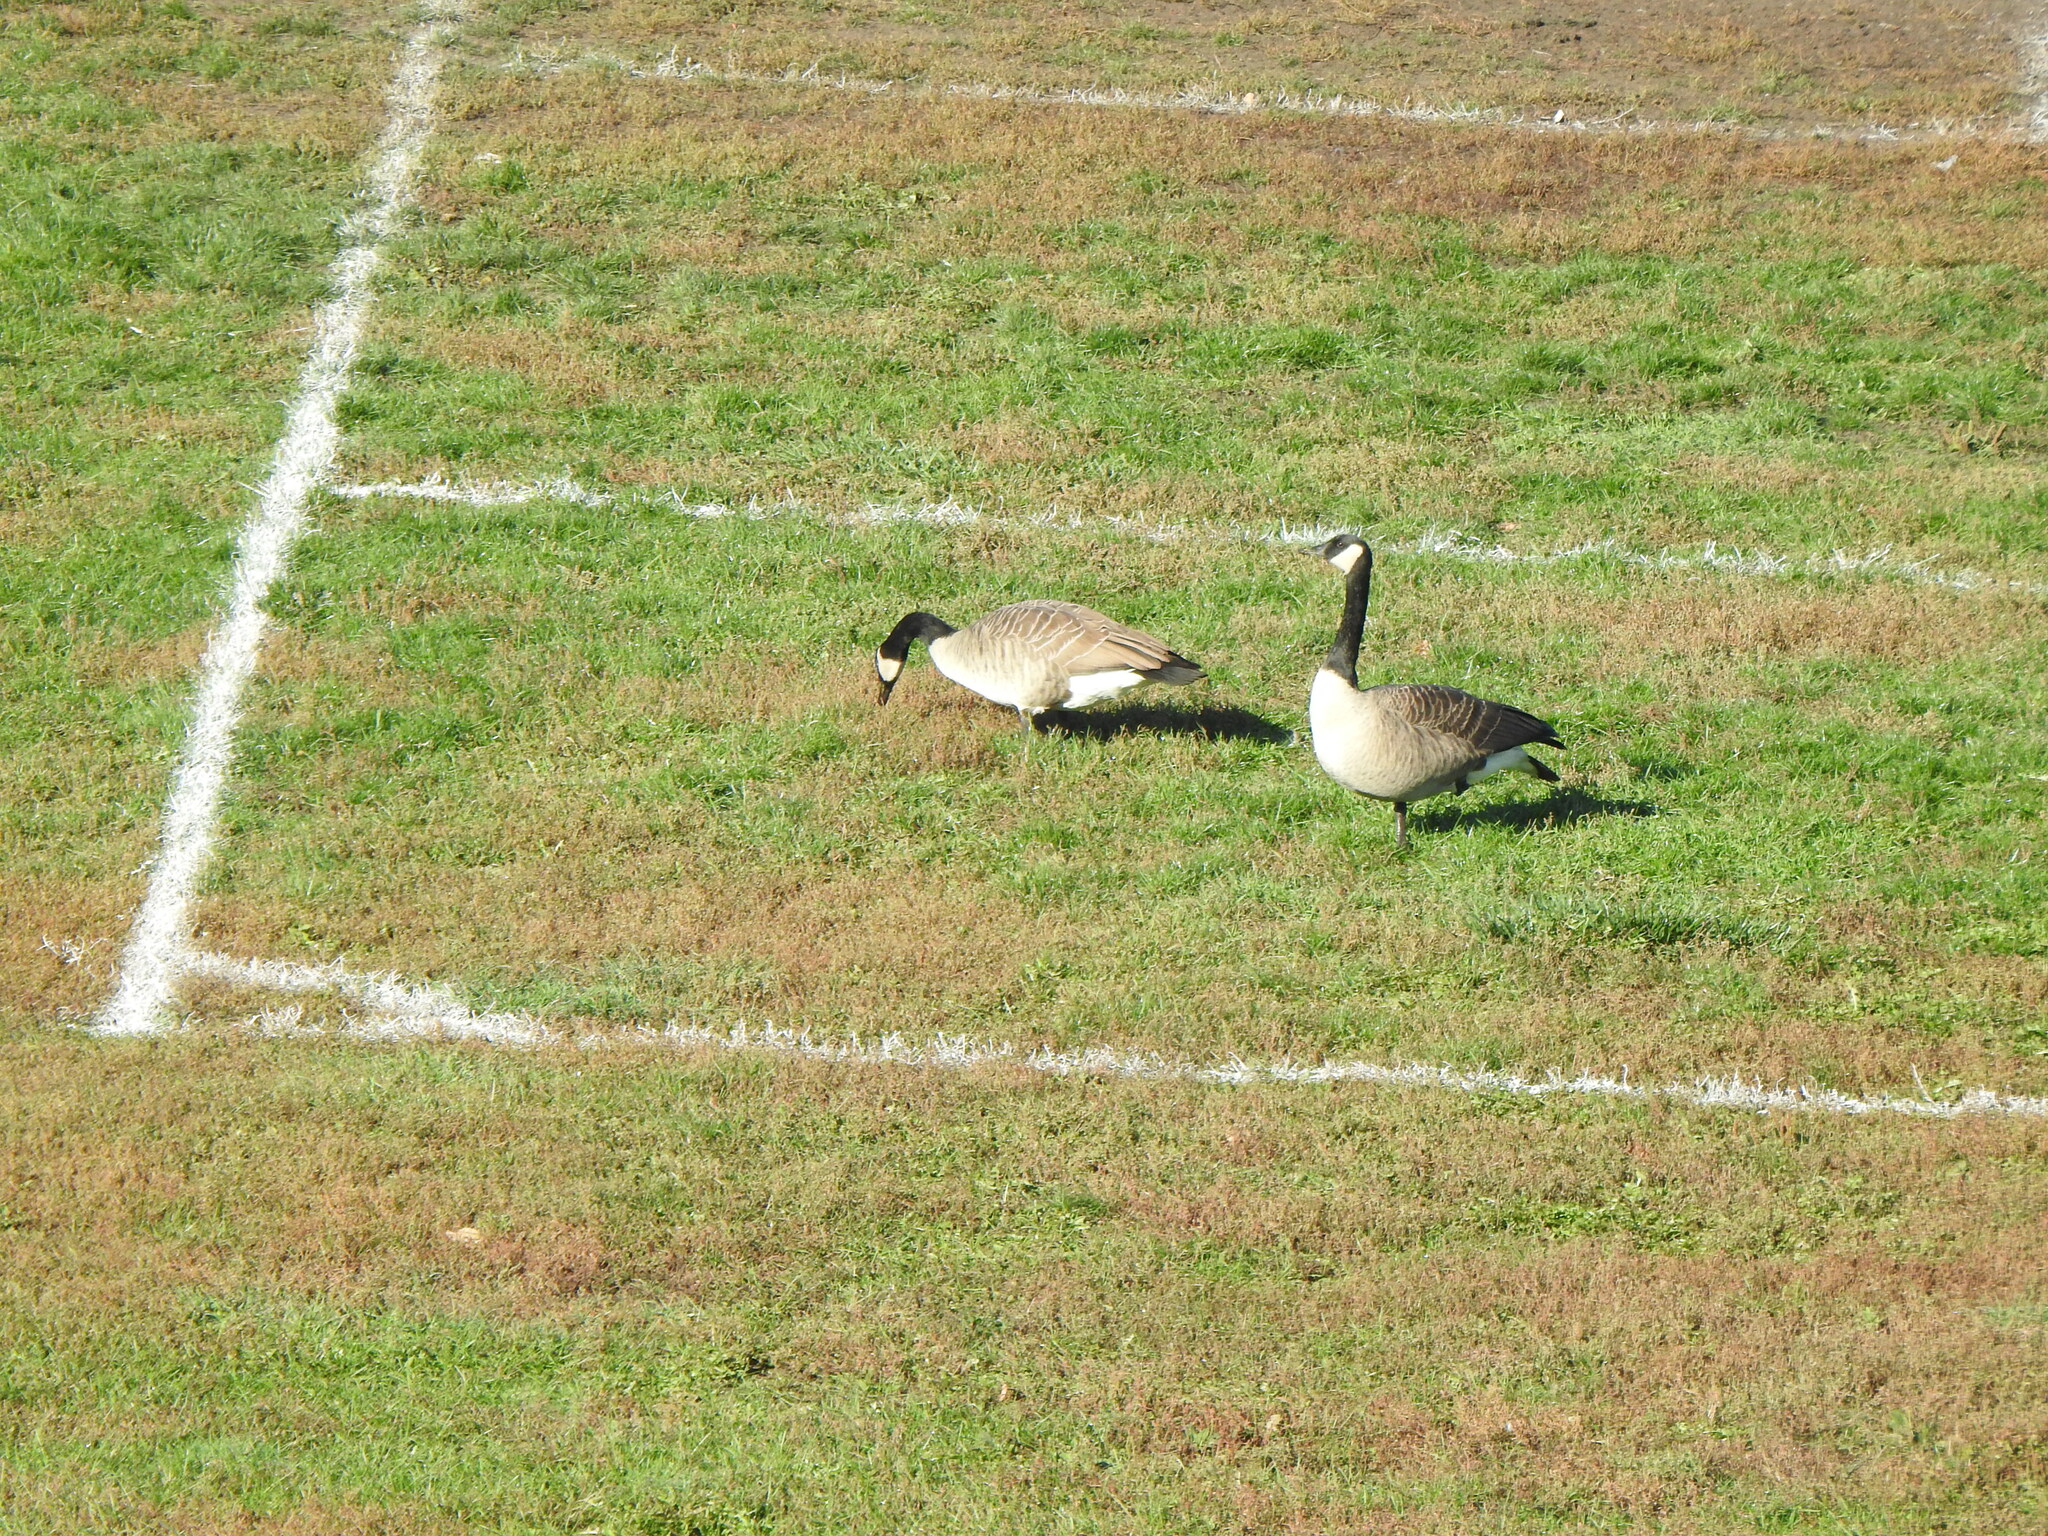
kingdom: Animalia
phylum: Chordata
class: Aves
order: Anseriformes
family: Anatidae
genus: Branta
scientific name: Branta canadensis
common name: Canada goose
